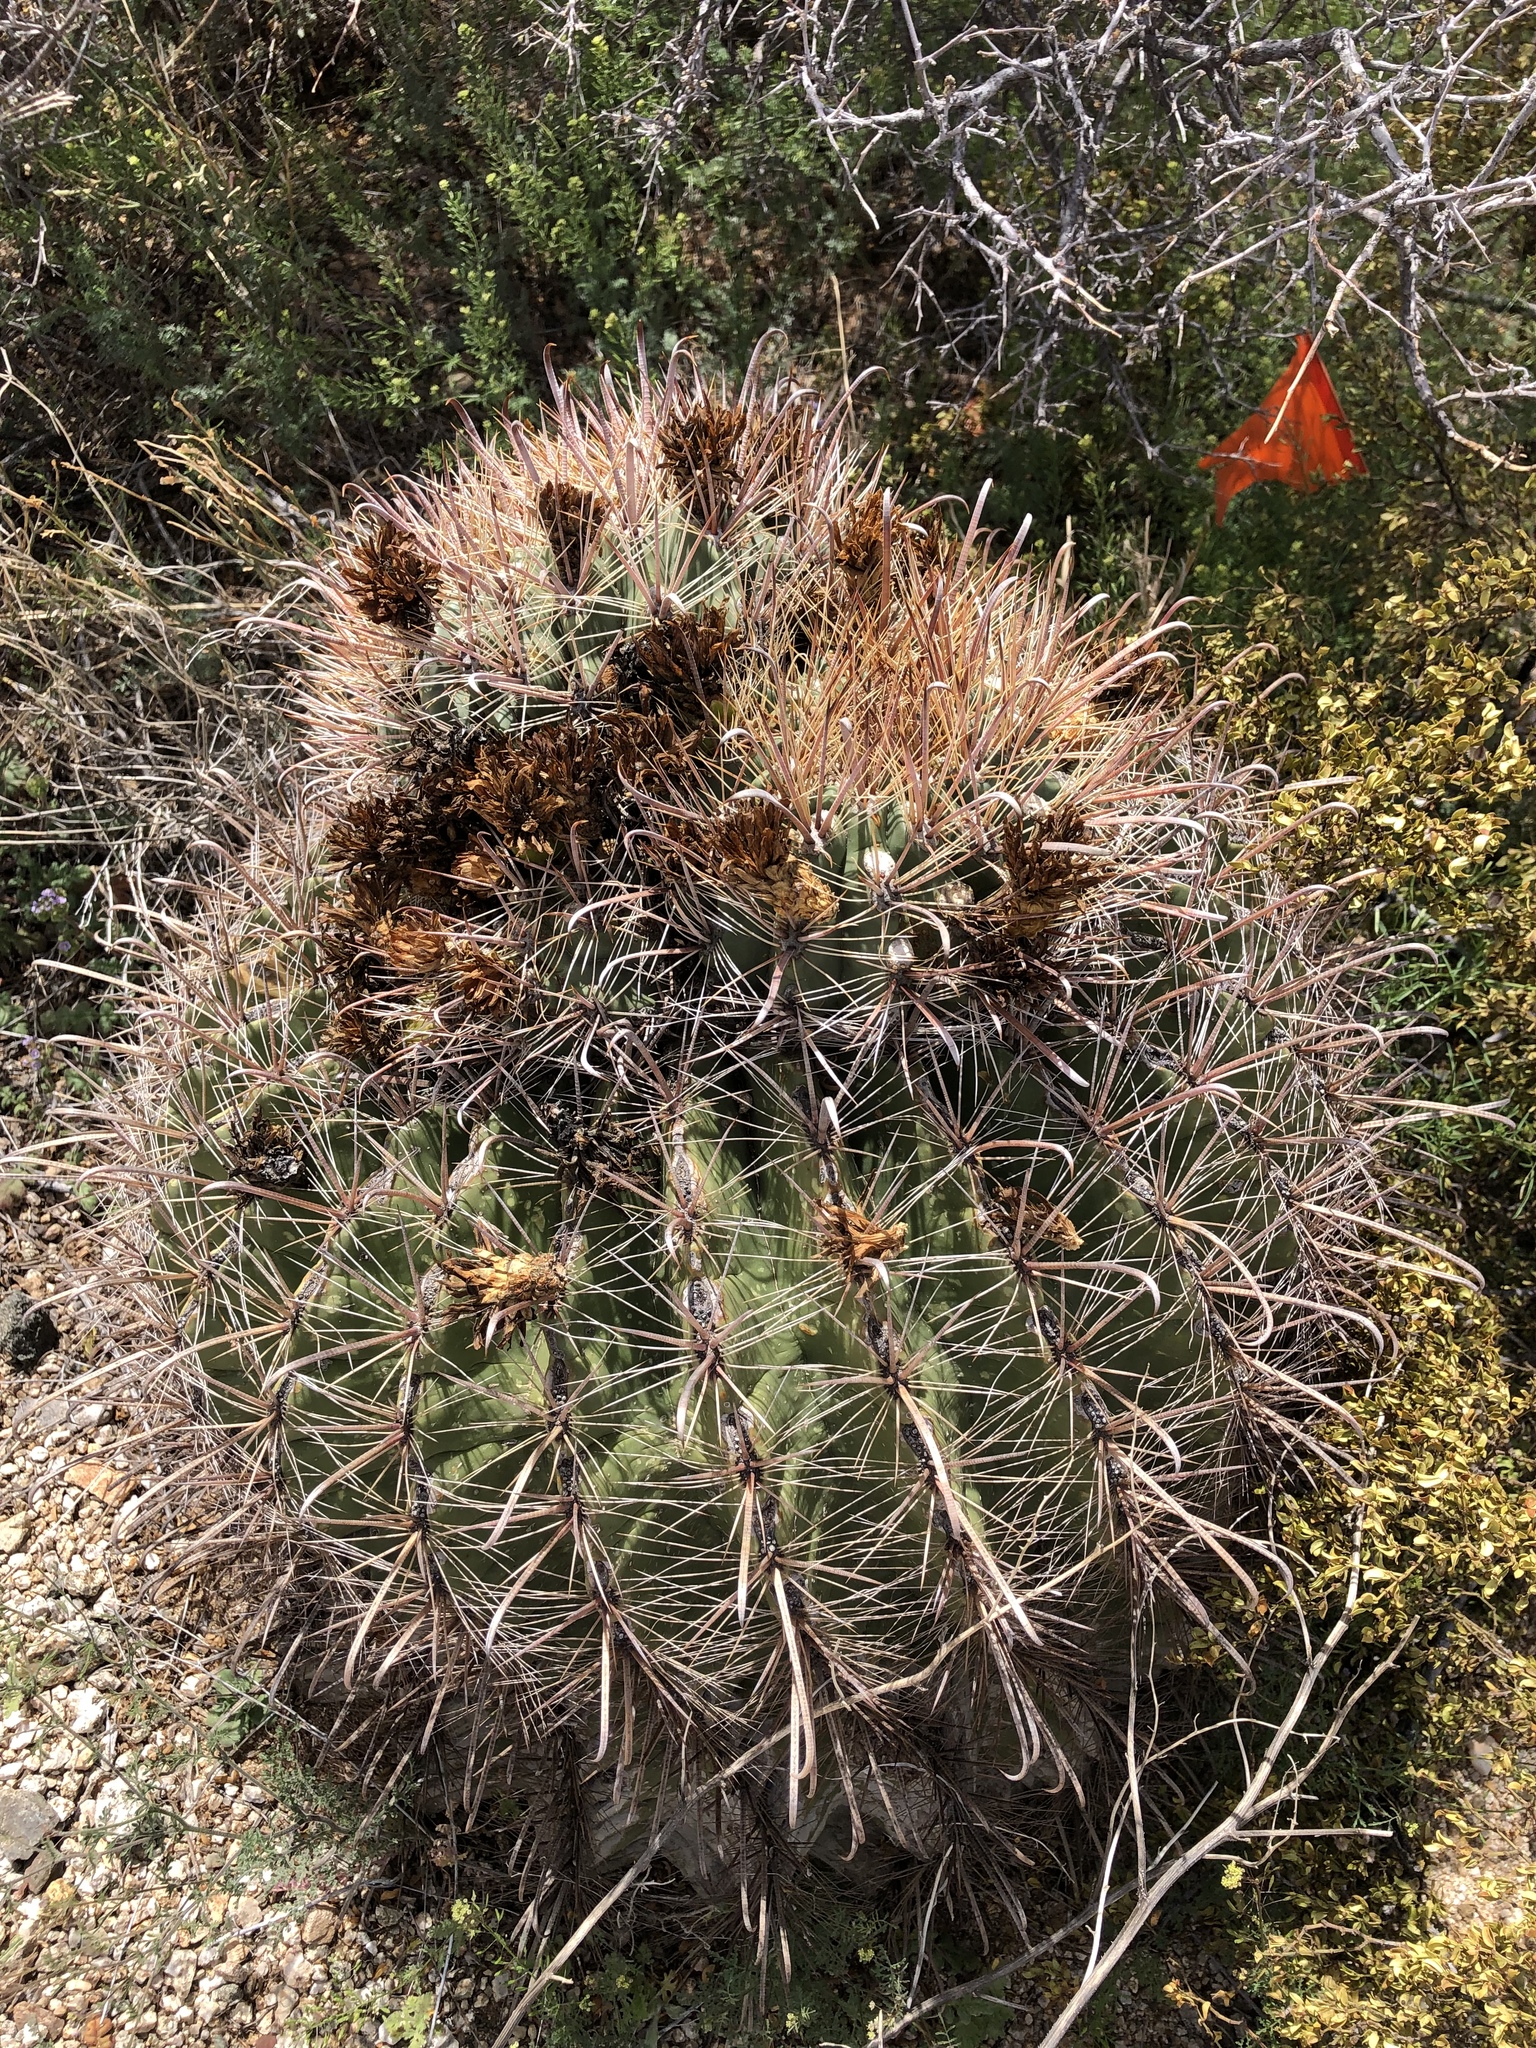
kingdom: Plantae
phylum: Tracheophyta
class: Magnoliopsida
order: Caryophyllales
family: Cactaceae
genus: Ferocactus
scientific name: Ferocactus wislizeni
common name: Candy barrel cactus
